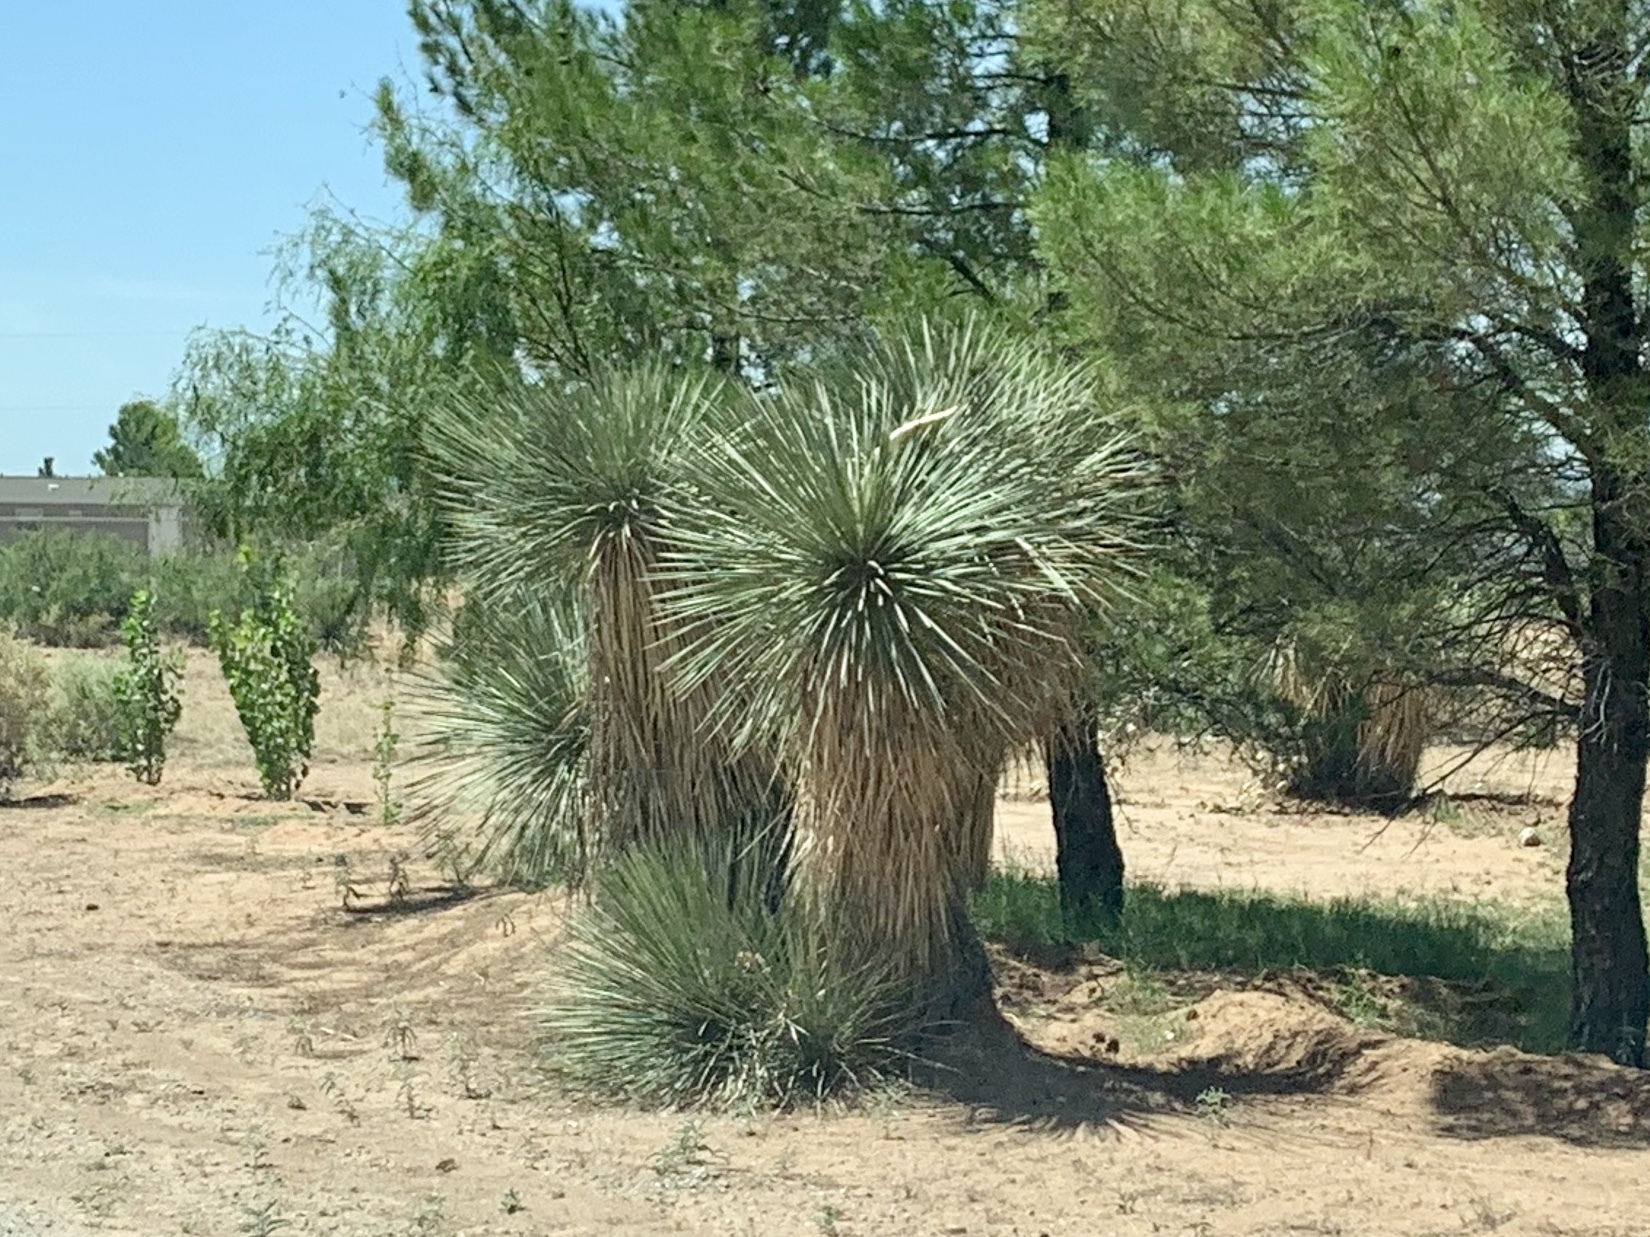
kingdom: Plantae
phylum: Tracheophyta
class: Liliopsida
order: Asparagales
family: Asparagaceae
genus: Yucca
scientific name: Yucca elata
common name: Palmella
